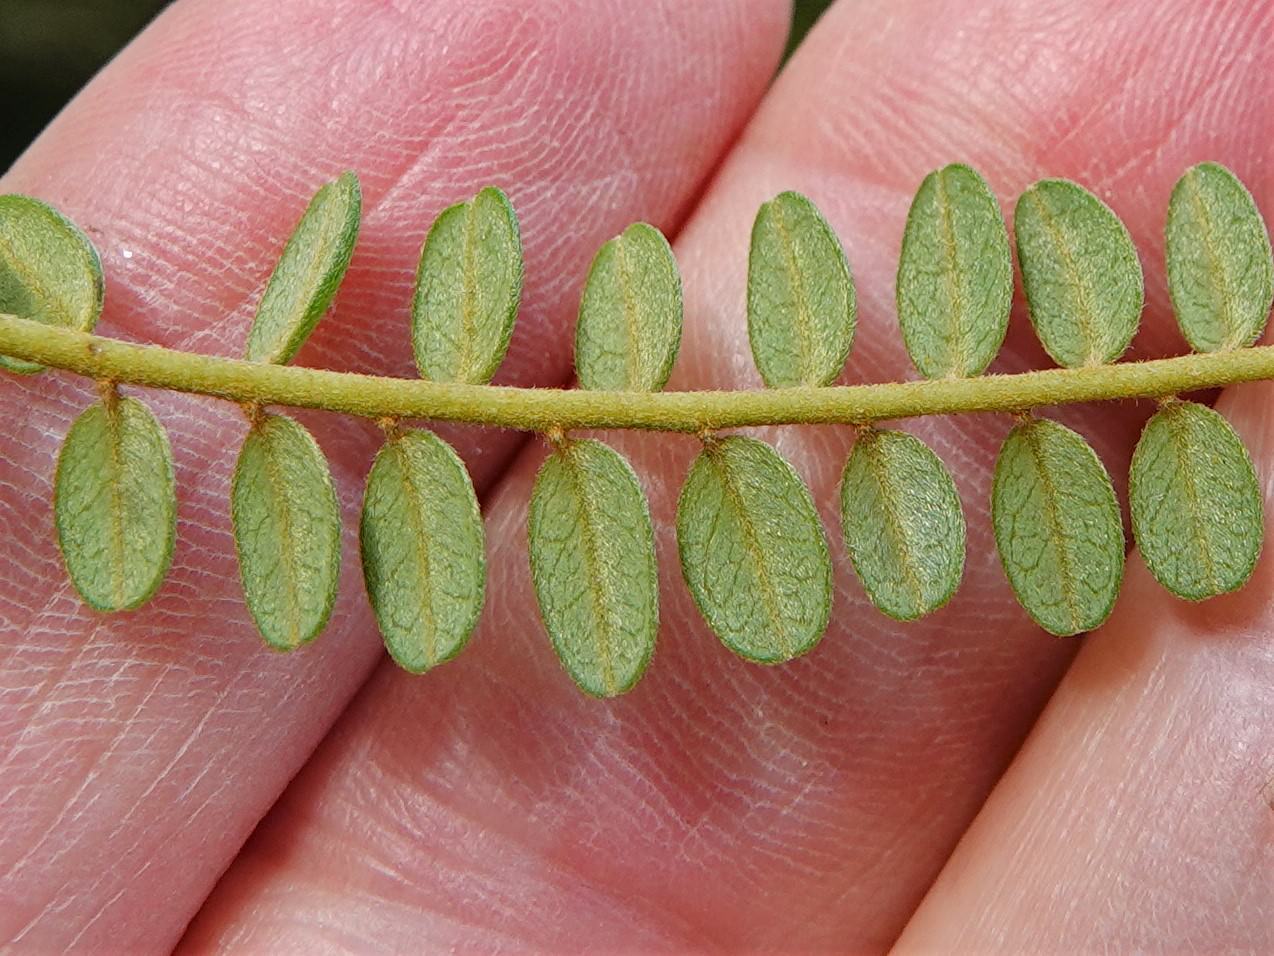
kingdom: Plantae
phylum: Tracheophyta
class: Magnoliopsida
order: Fabales
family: Fabaceae
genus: Sophora
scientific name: Sophora chathamica
